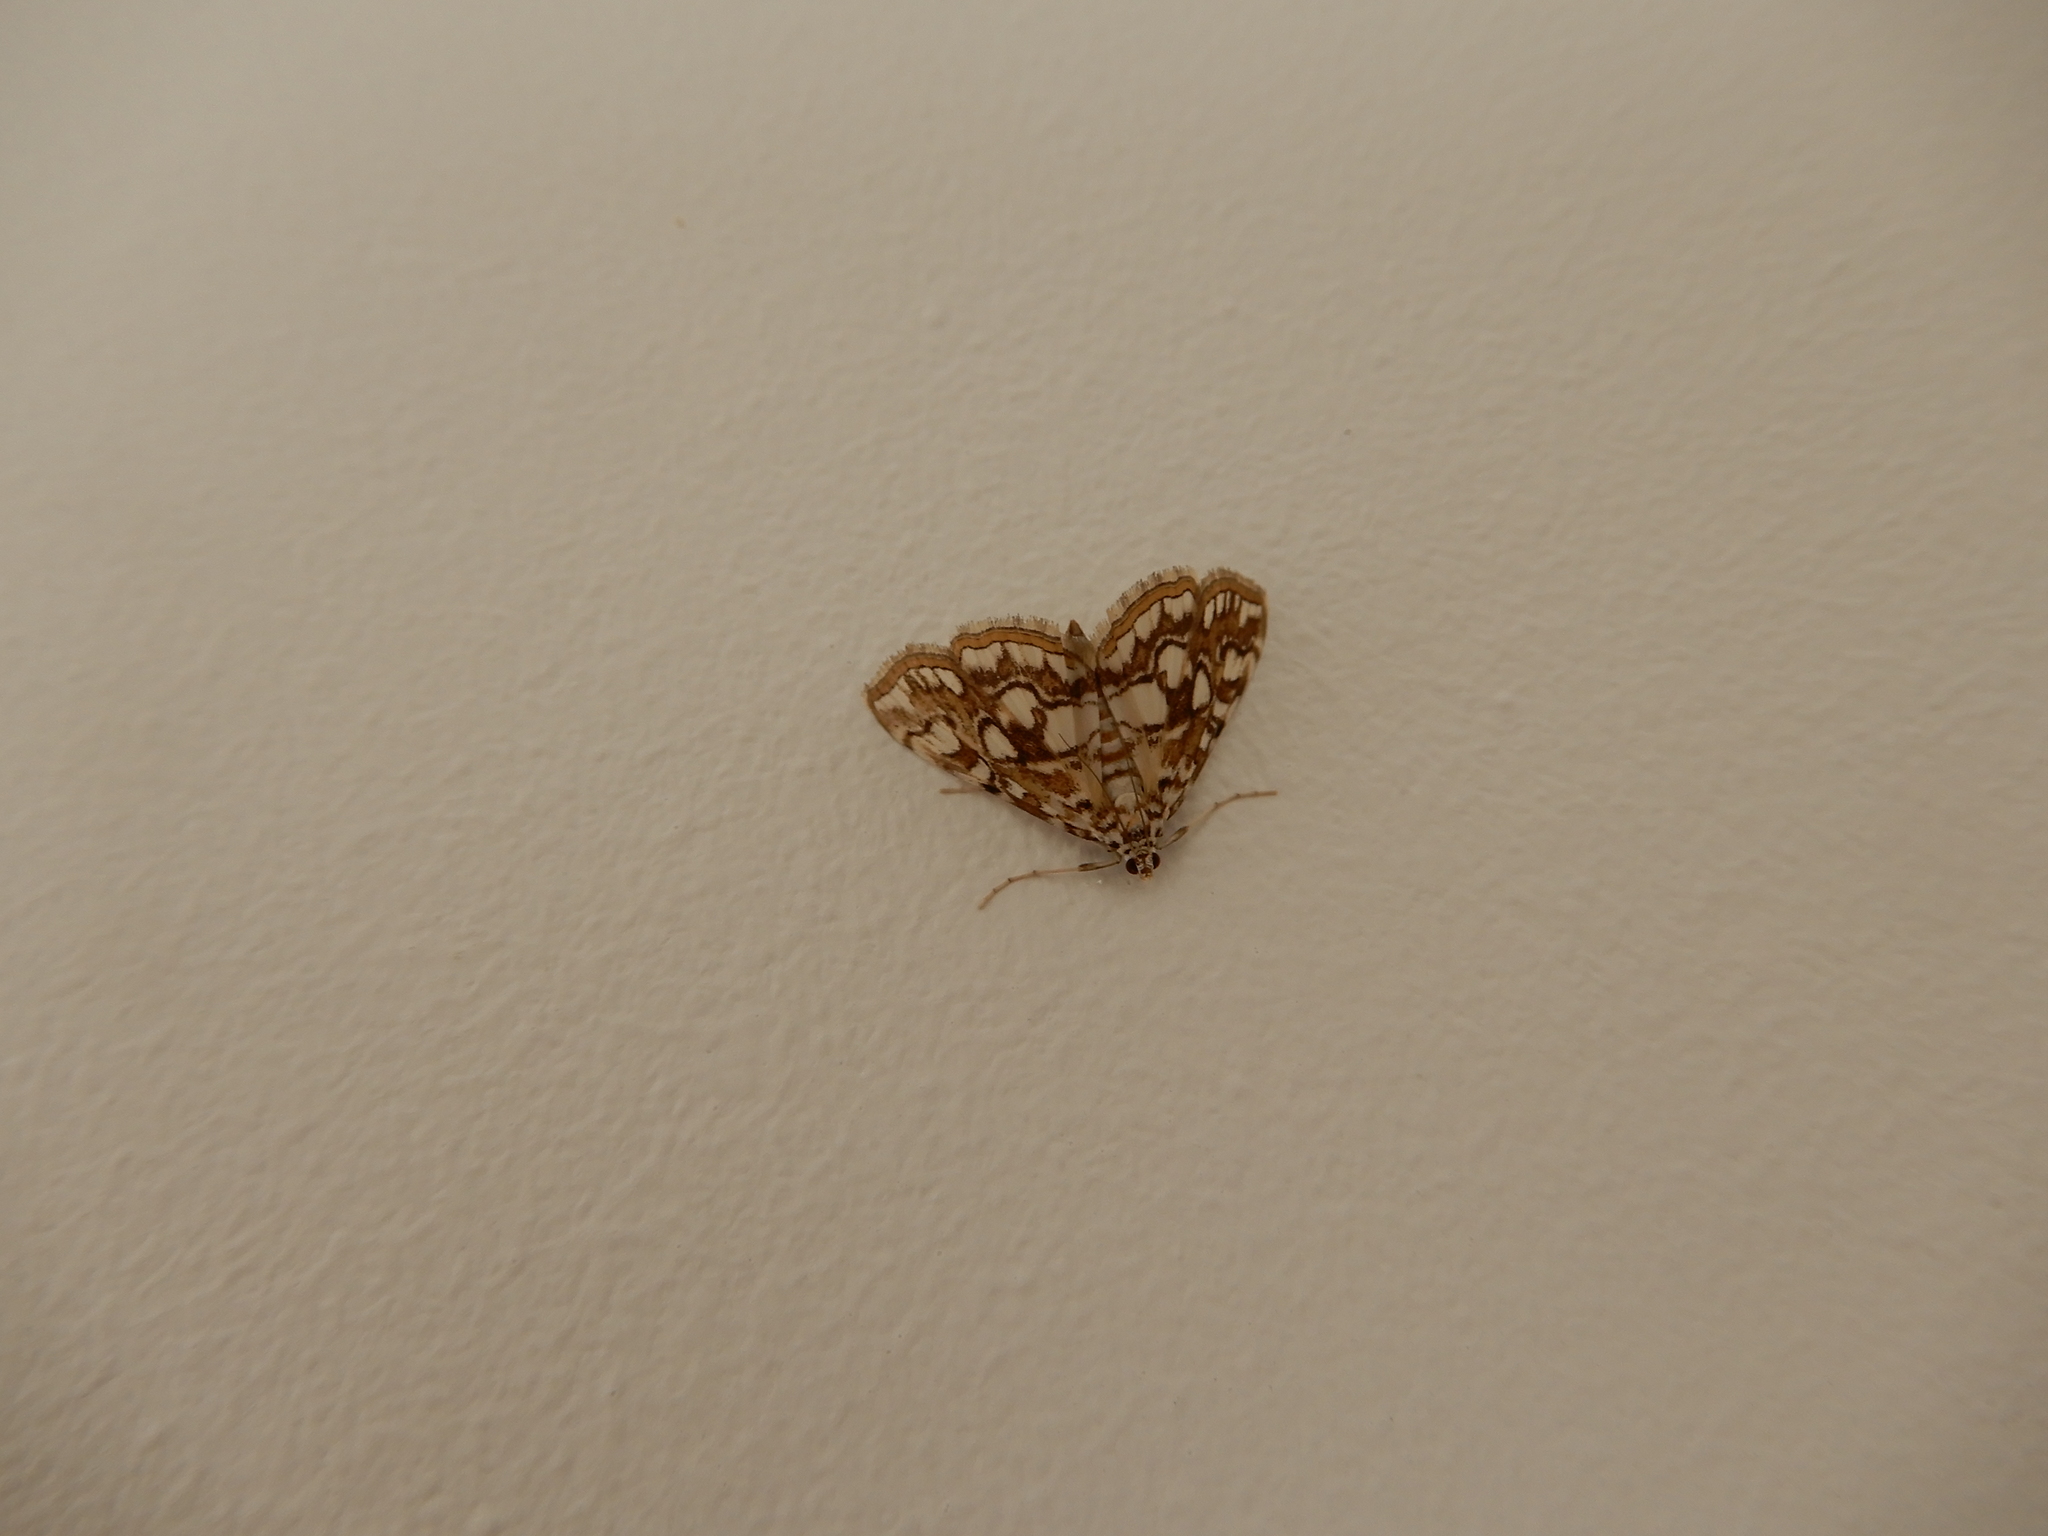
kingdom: Animalia
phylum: Arthropoda
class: Insecta
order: Lepidoptera
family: Crambidae
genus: Elophila
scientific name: Elophila nymphaeata
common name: Brown china-mark
